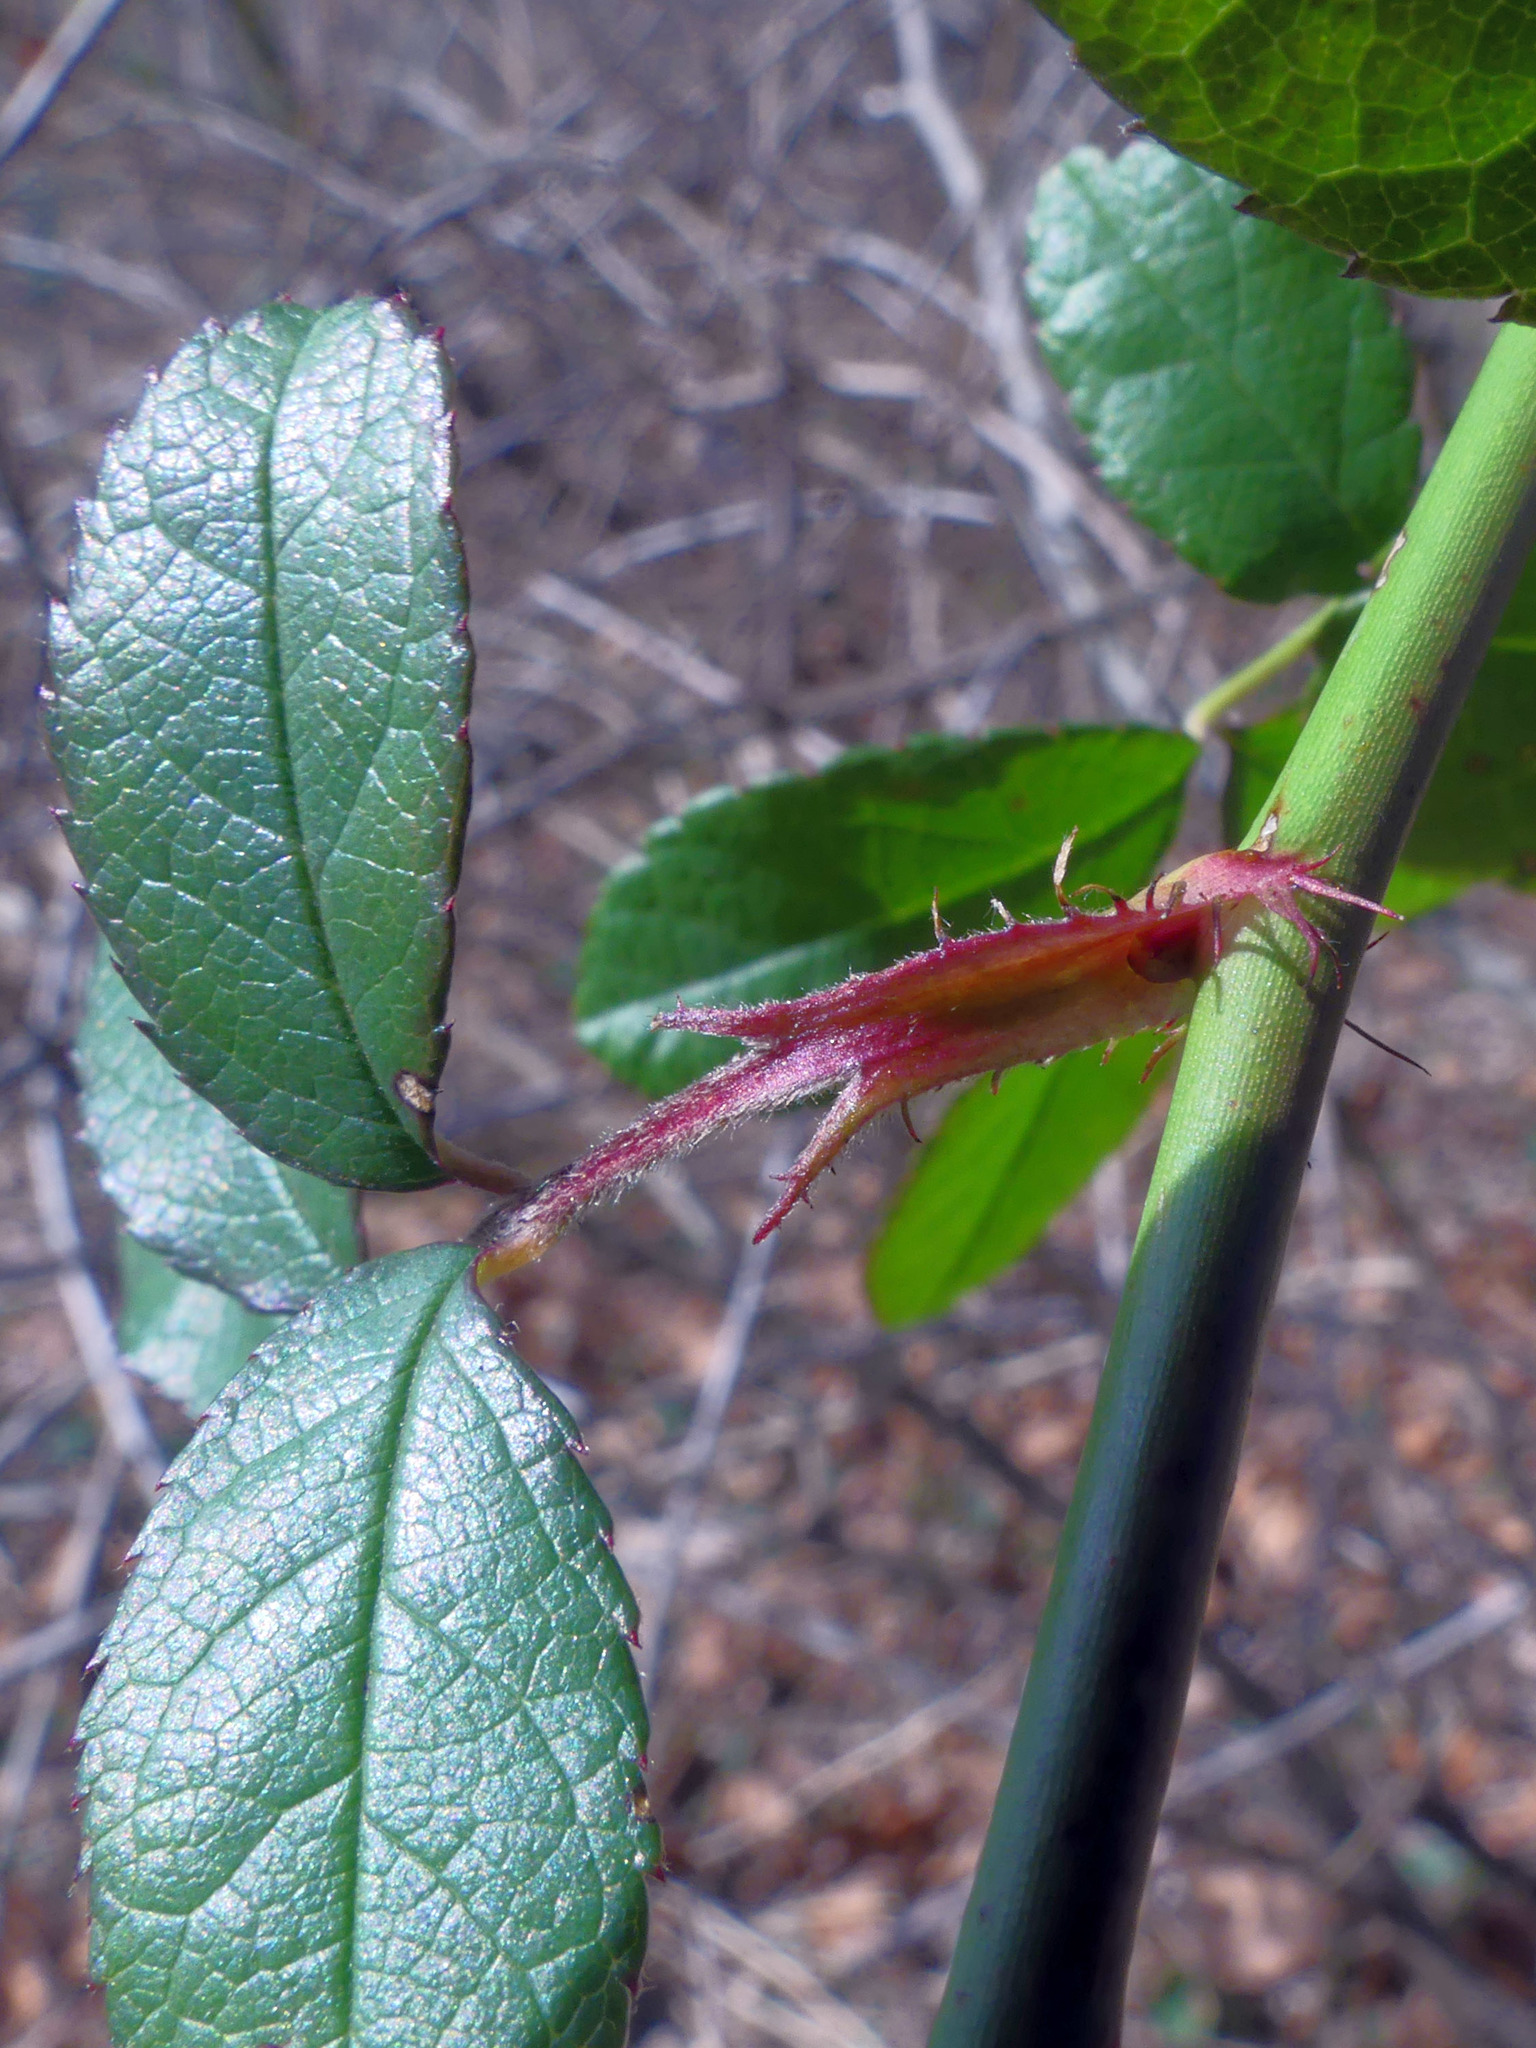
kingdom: Plantae
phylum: Tracheophyta
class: Magnoliopsida
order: Rosales
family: Rosaceae
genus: Rosa
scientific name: Rosa multiflora
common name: Multiflora rose
